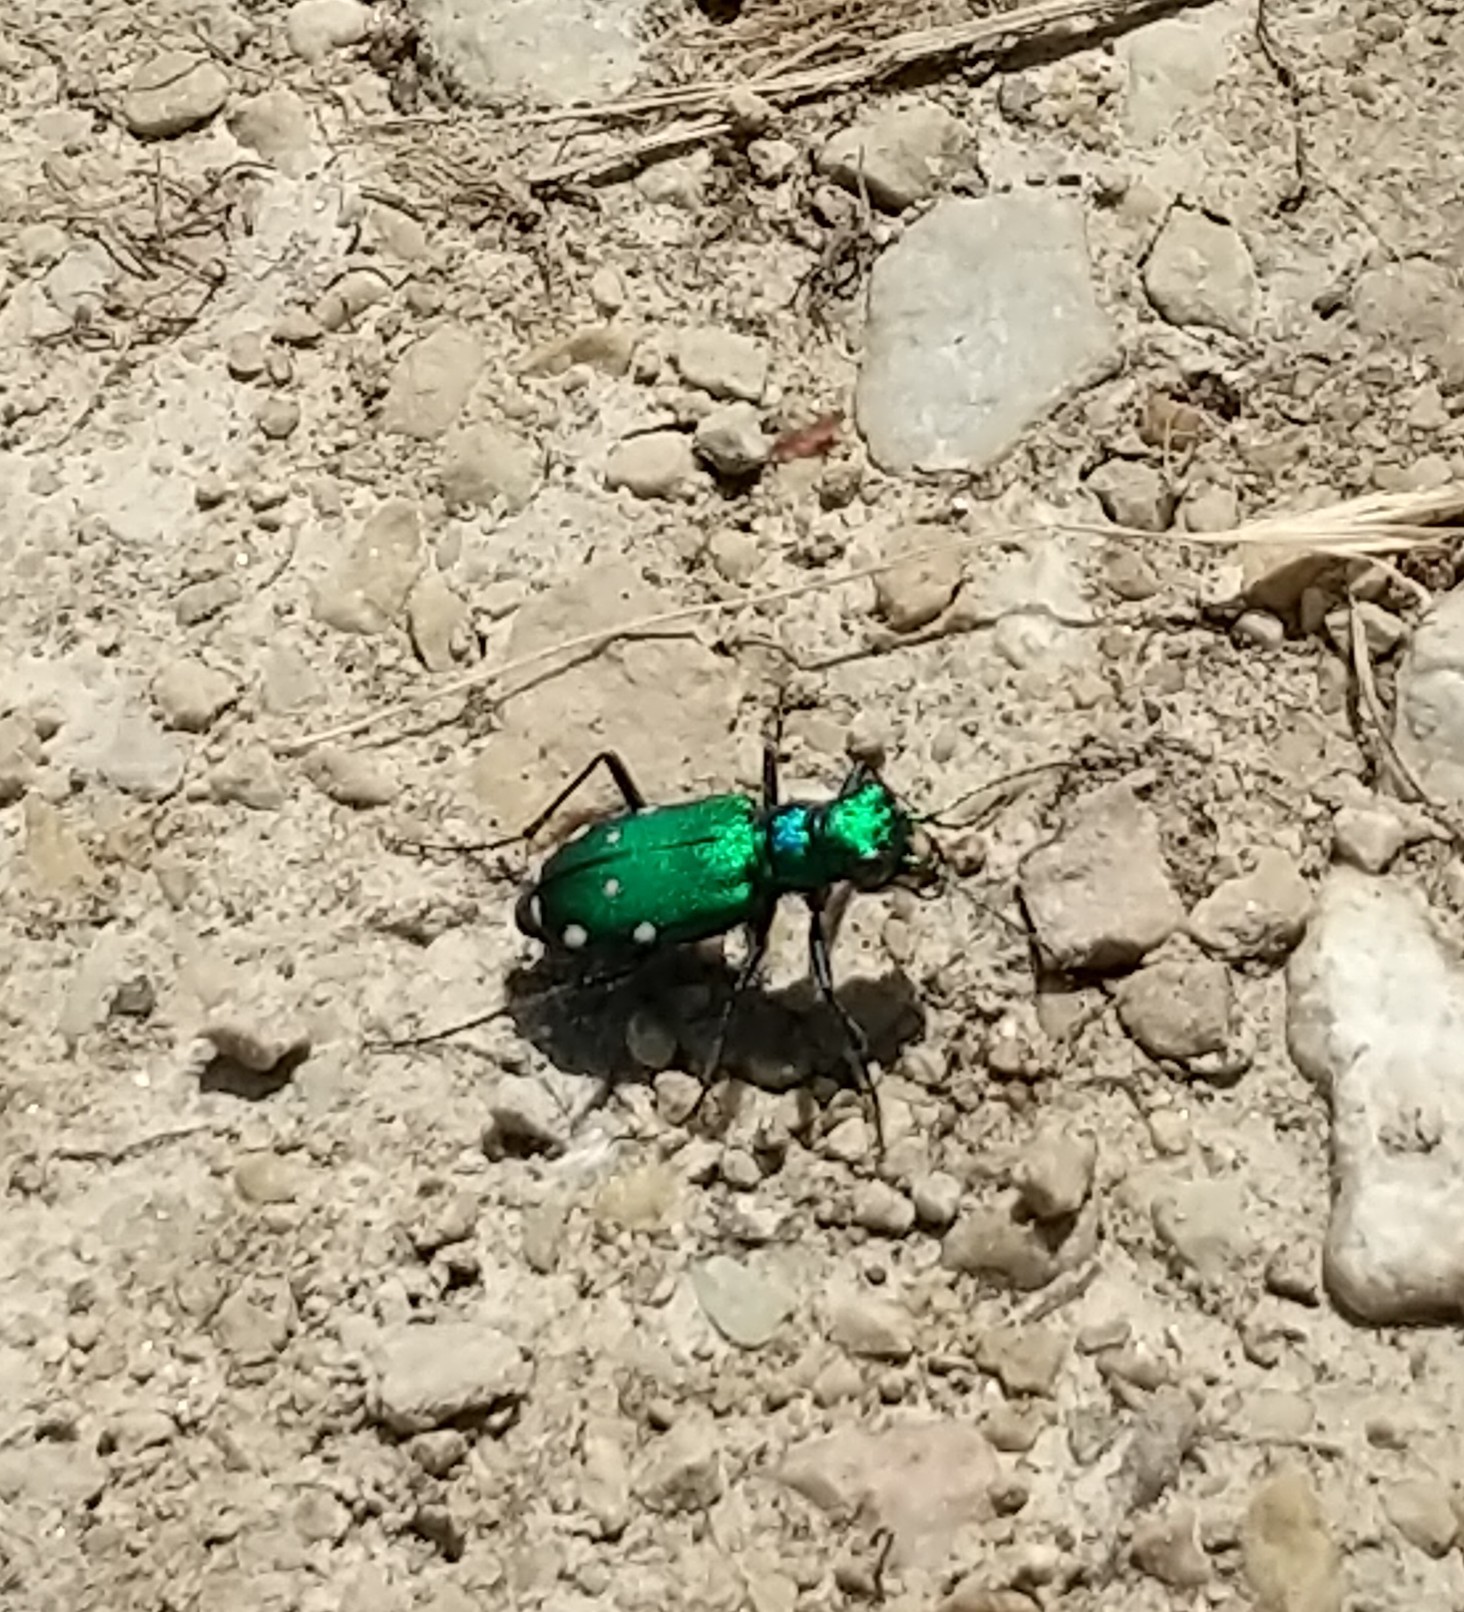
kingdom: Animalia
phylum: Arthropoda
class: Insecta
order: Coleoptera
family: Carabidae
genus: Cicindela
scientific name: Cicindela sexguttata
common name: Six-spotted tiger beetle
